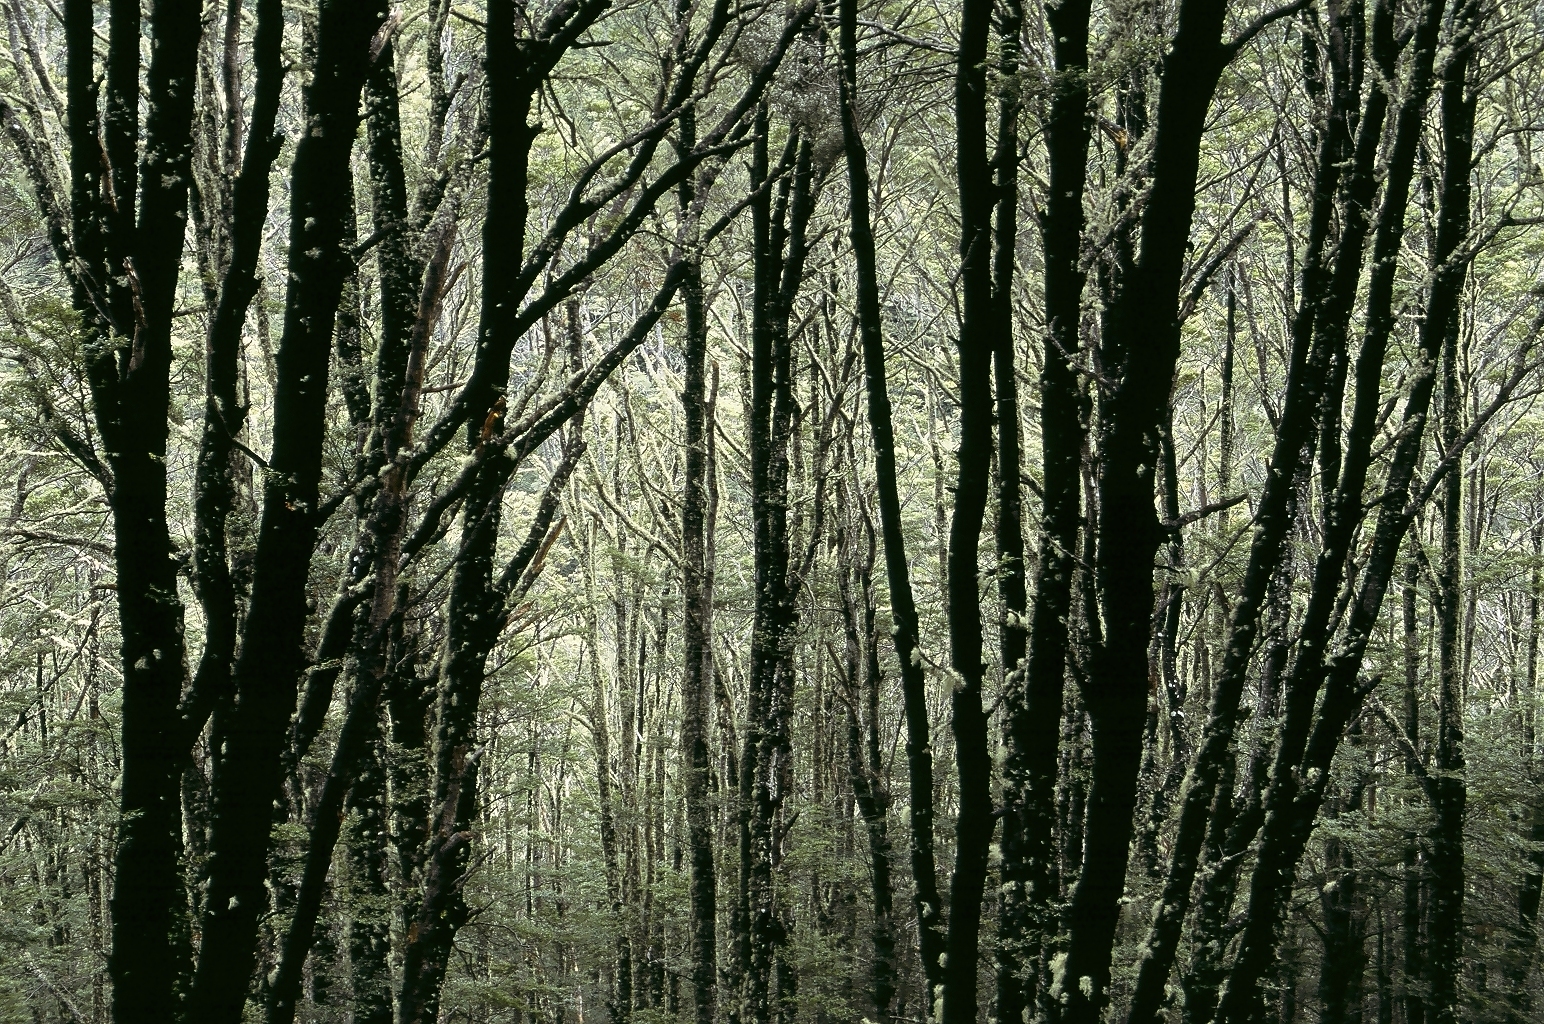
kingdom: Plantae
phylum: Tracheophyta
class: Magnoliopsida
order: Fagales
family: Nothofagaceae
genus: Nothofagus
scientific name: Nothofagus cliffortioides
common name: Mountain beech
